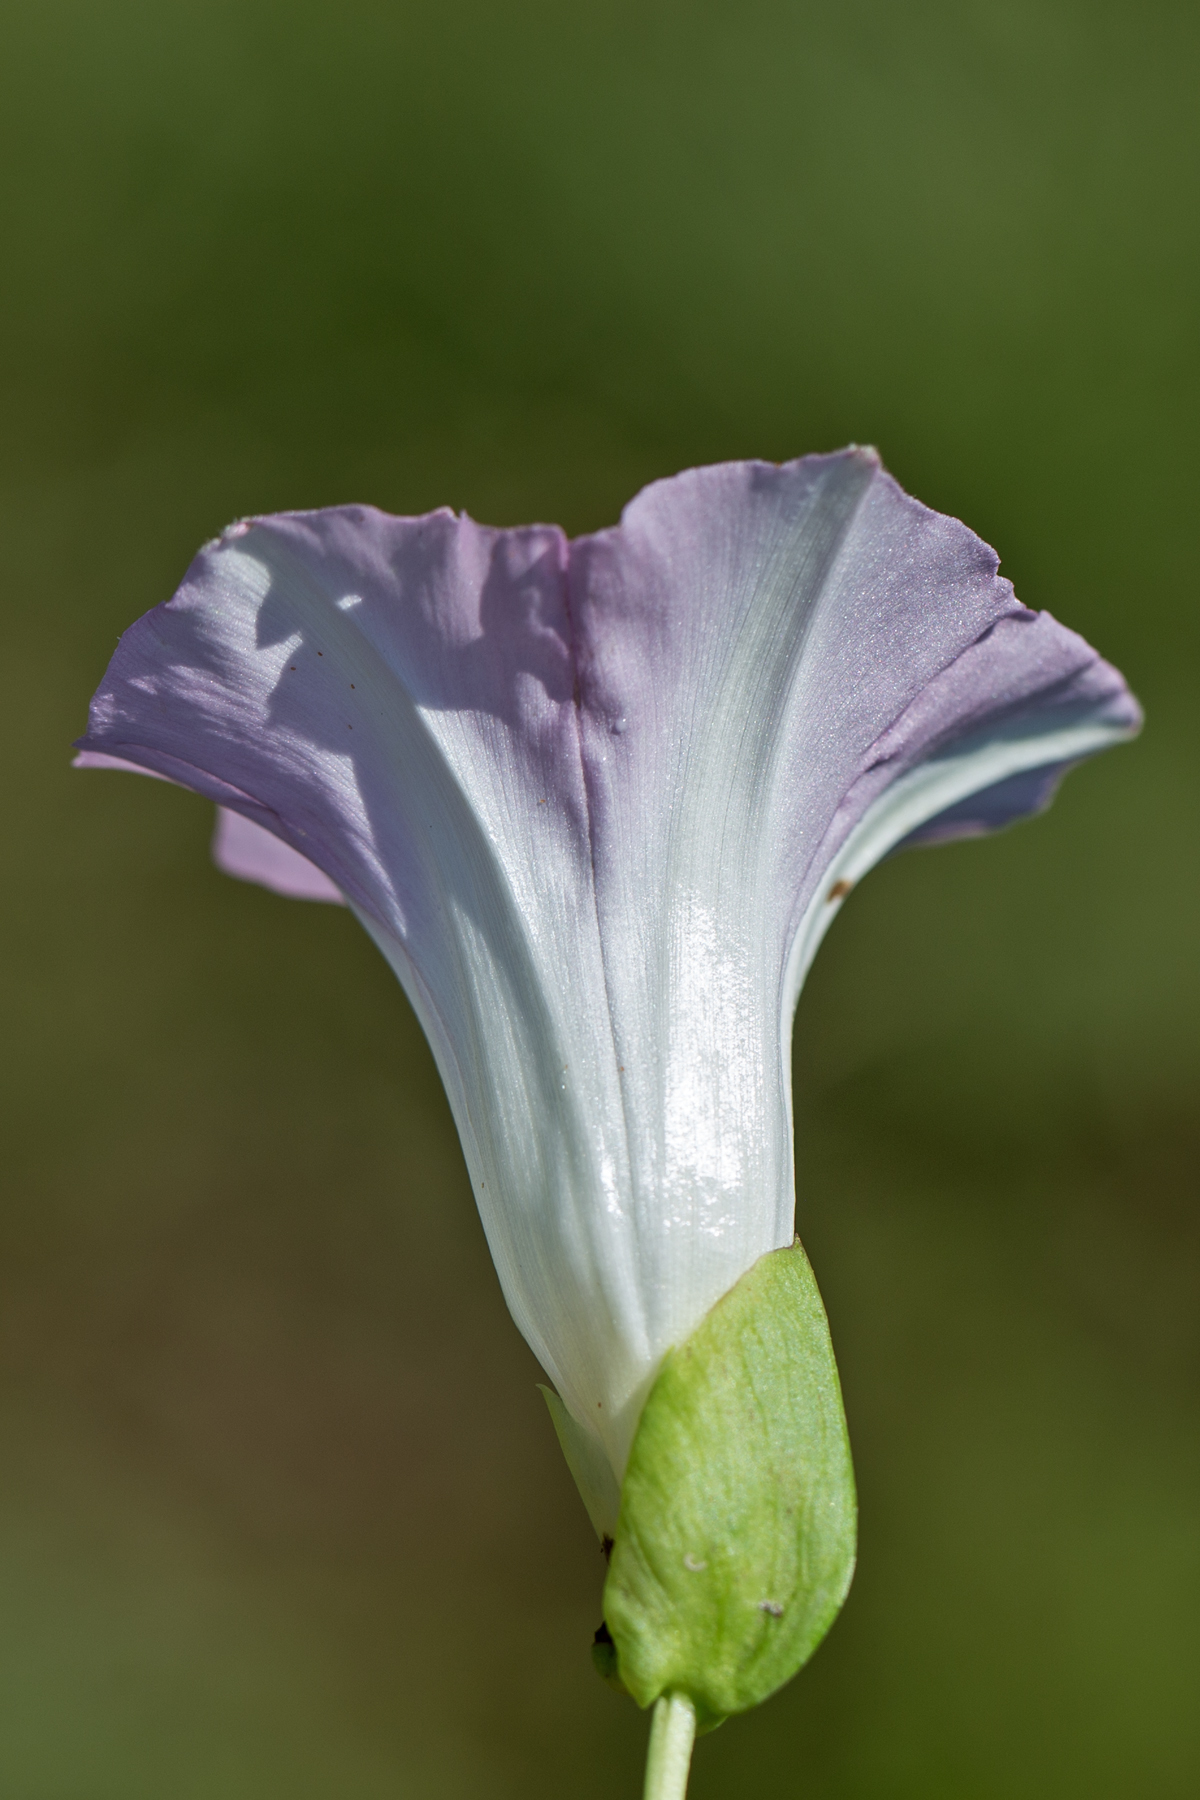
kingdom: Plantae
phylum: Tracheophyta
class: Magnoliopsida
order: Solanales
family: Convolvulaceae
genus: Calystegia
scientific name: Calystegia sepium
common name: Hedge bindweed
